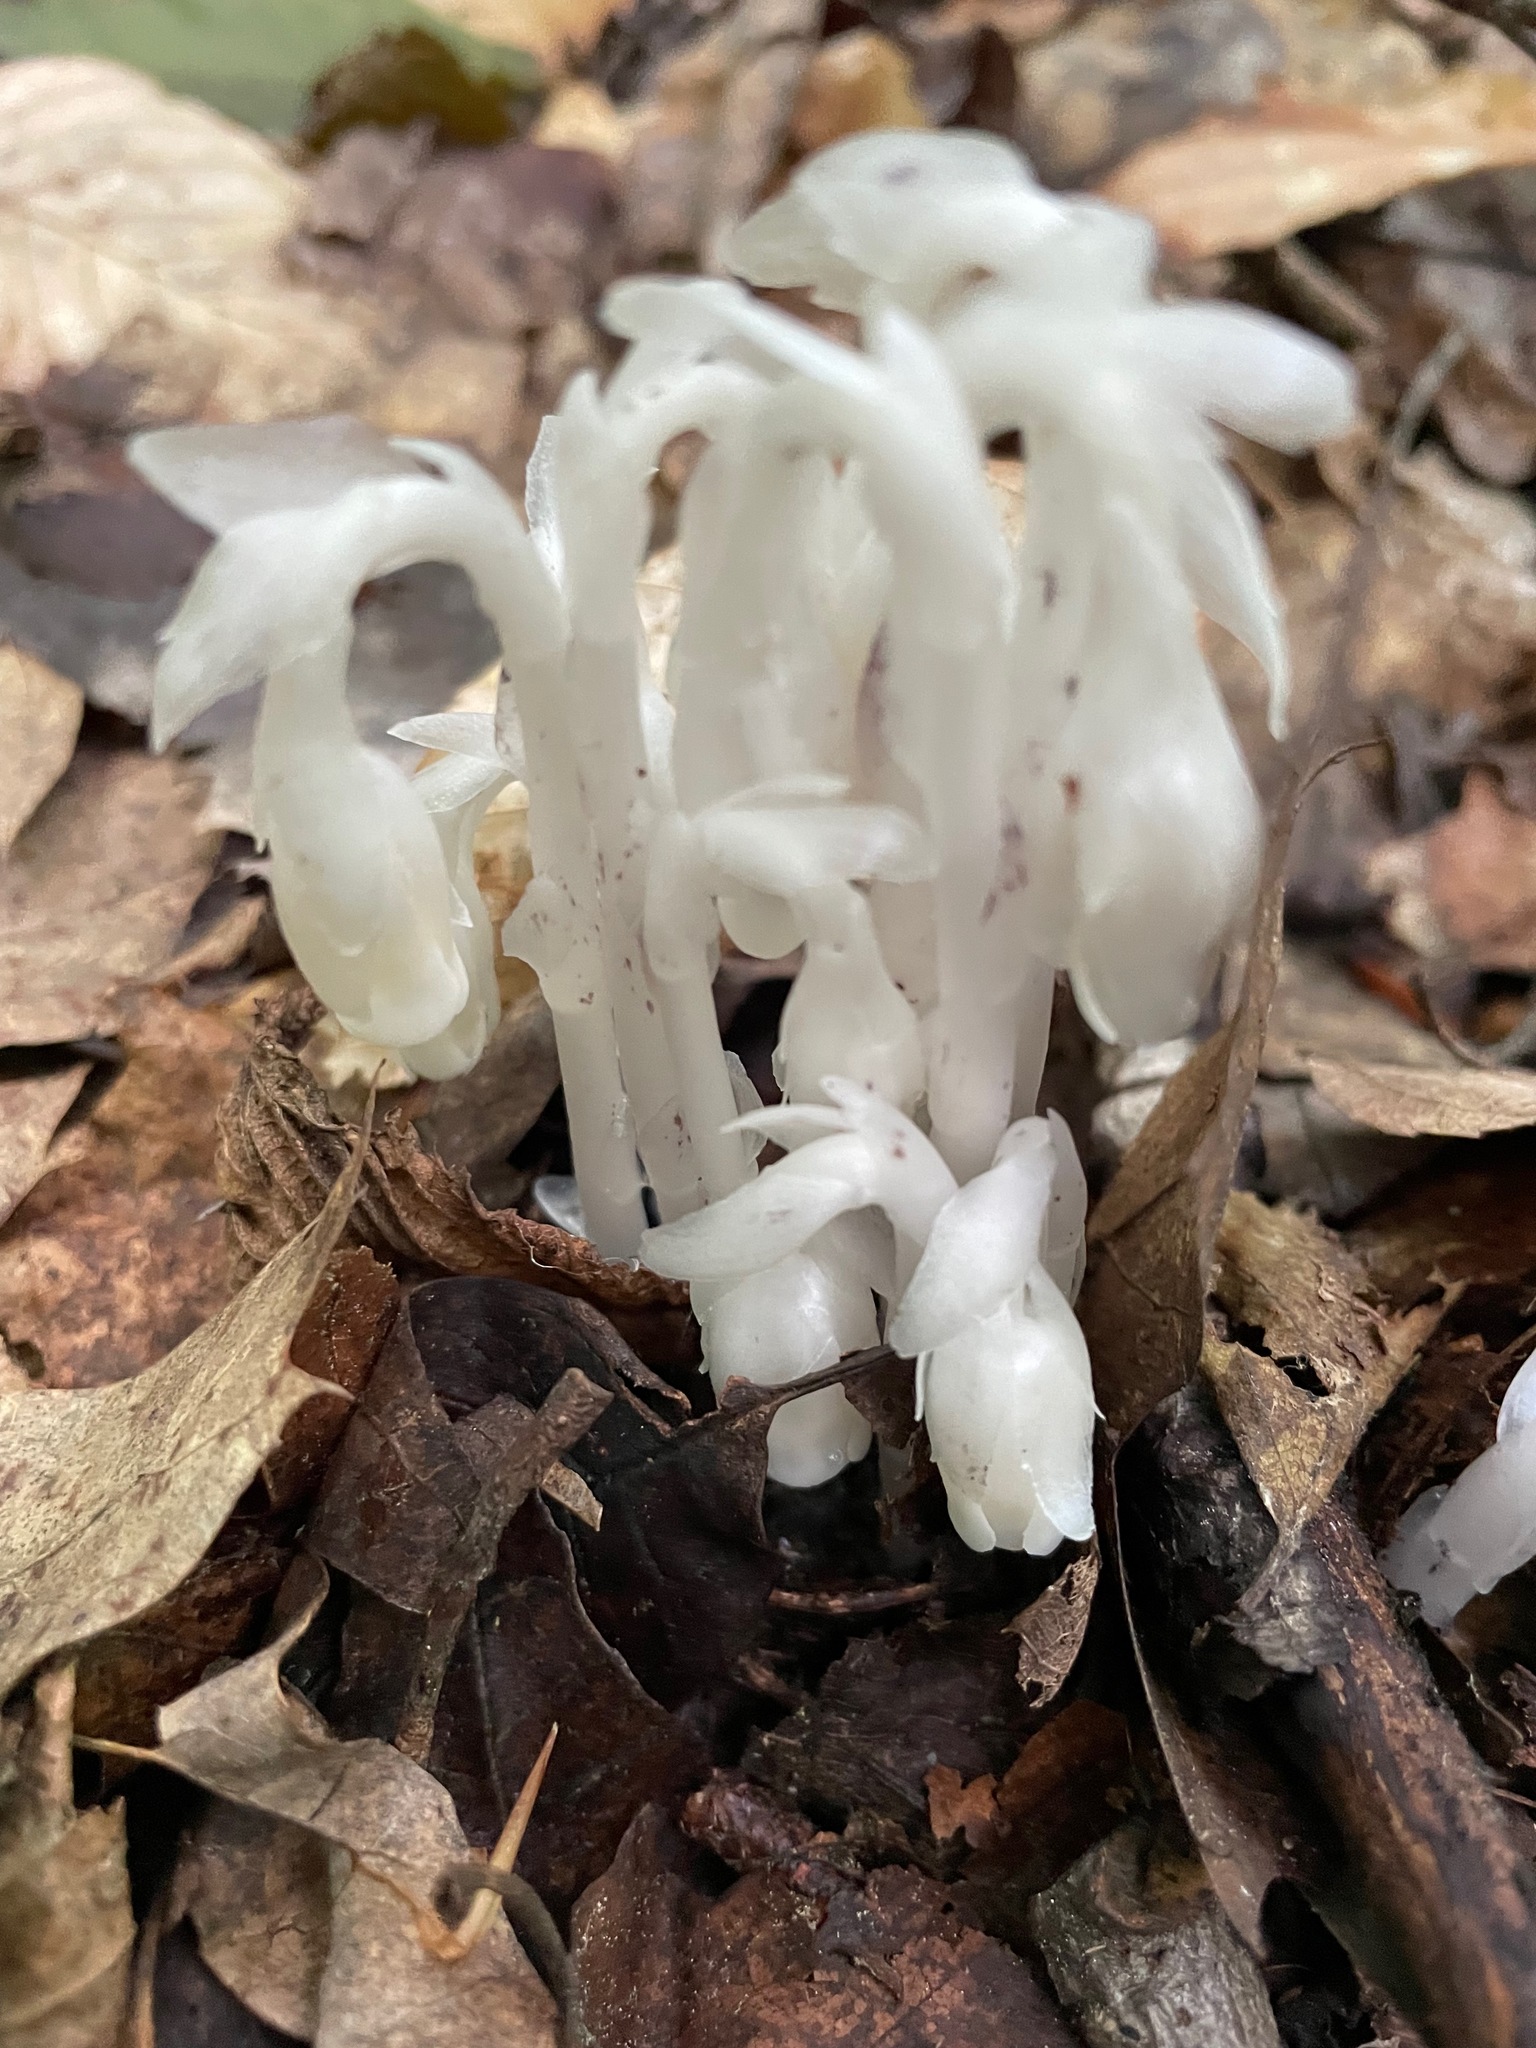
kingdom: Plantae
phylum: Tracheophyta
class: Magnoliopsida
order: Ericales
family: Ericaceae
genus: Monotropa
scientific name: Monotropa uniflora
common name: Convulsion root
